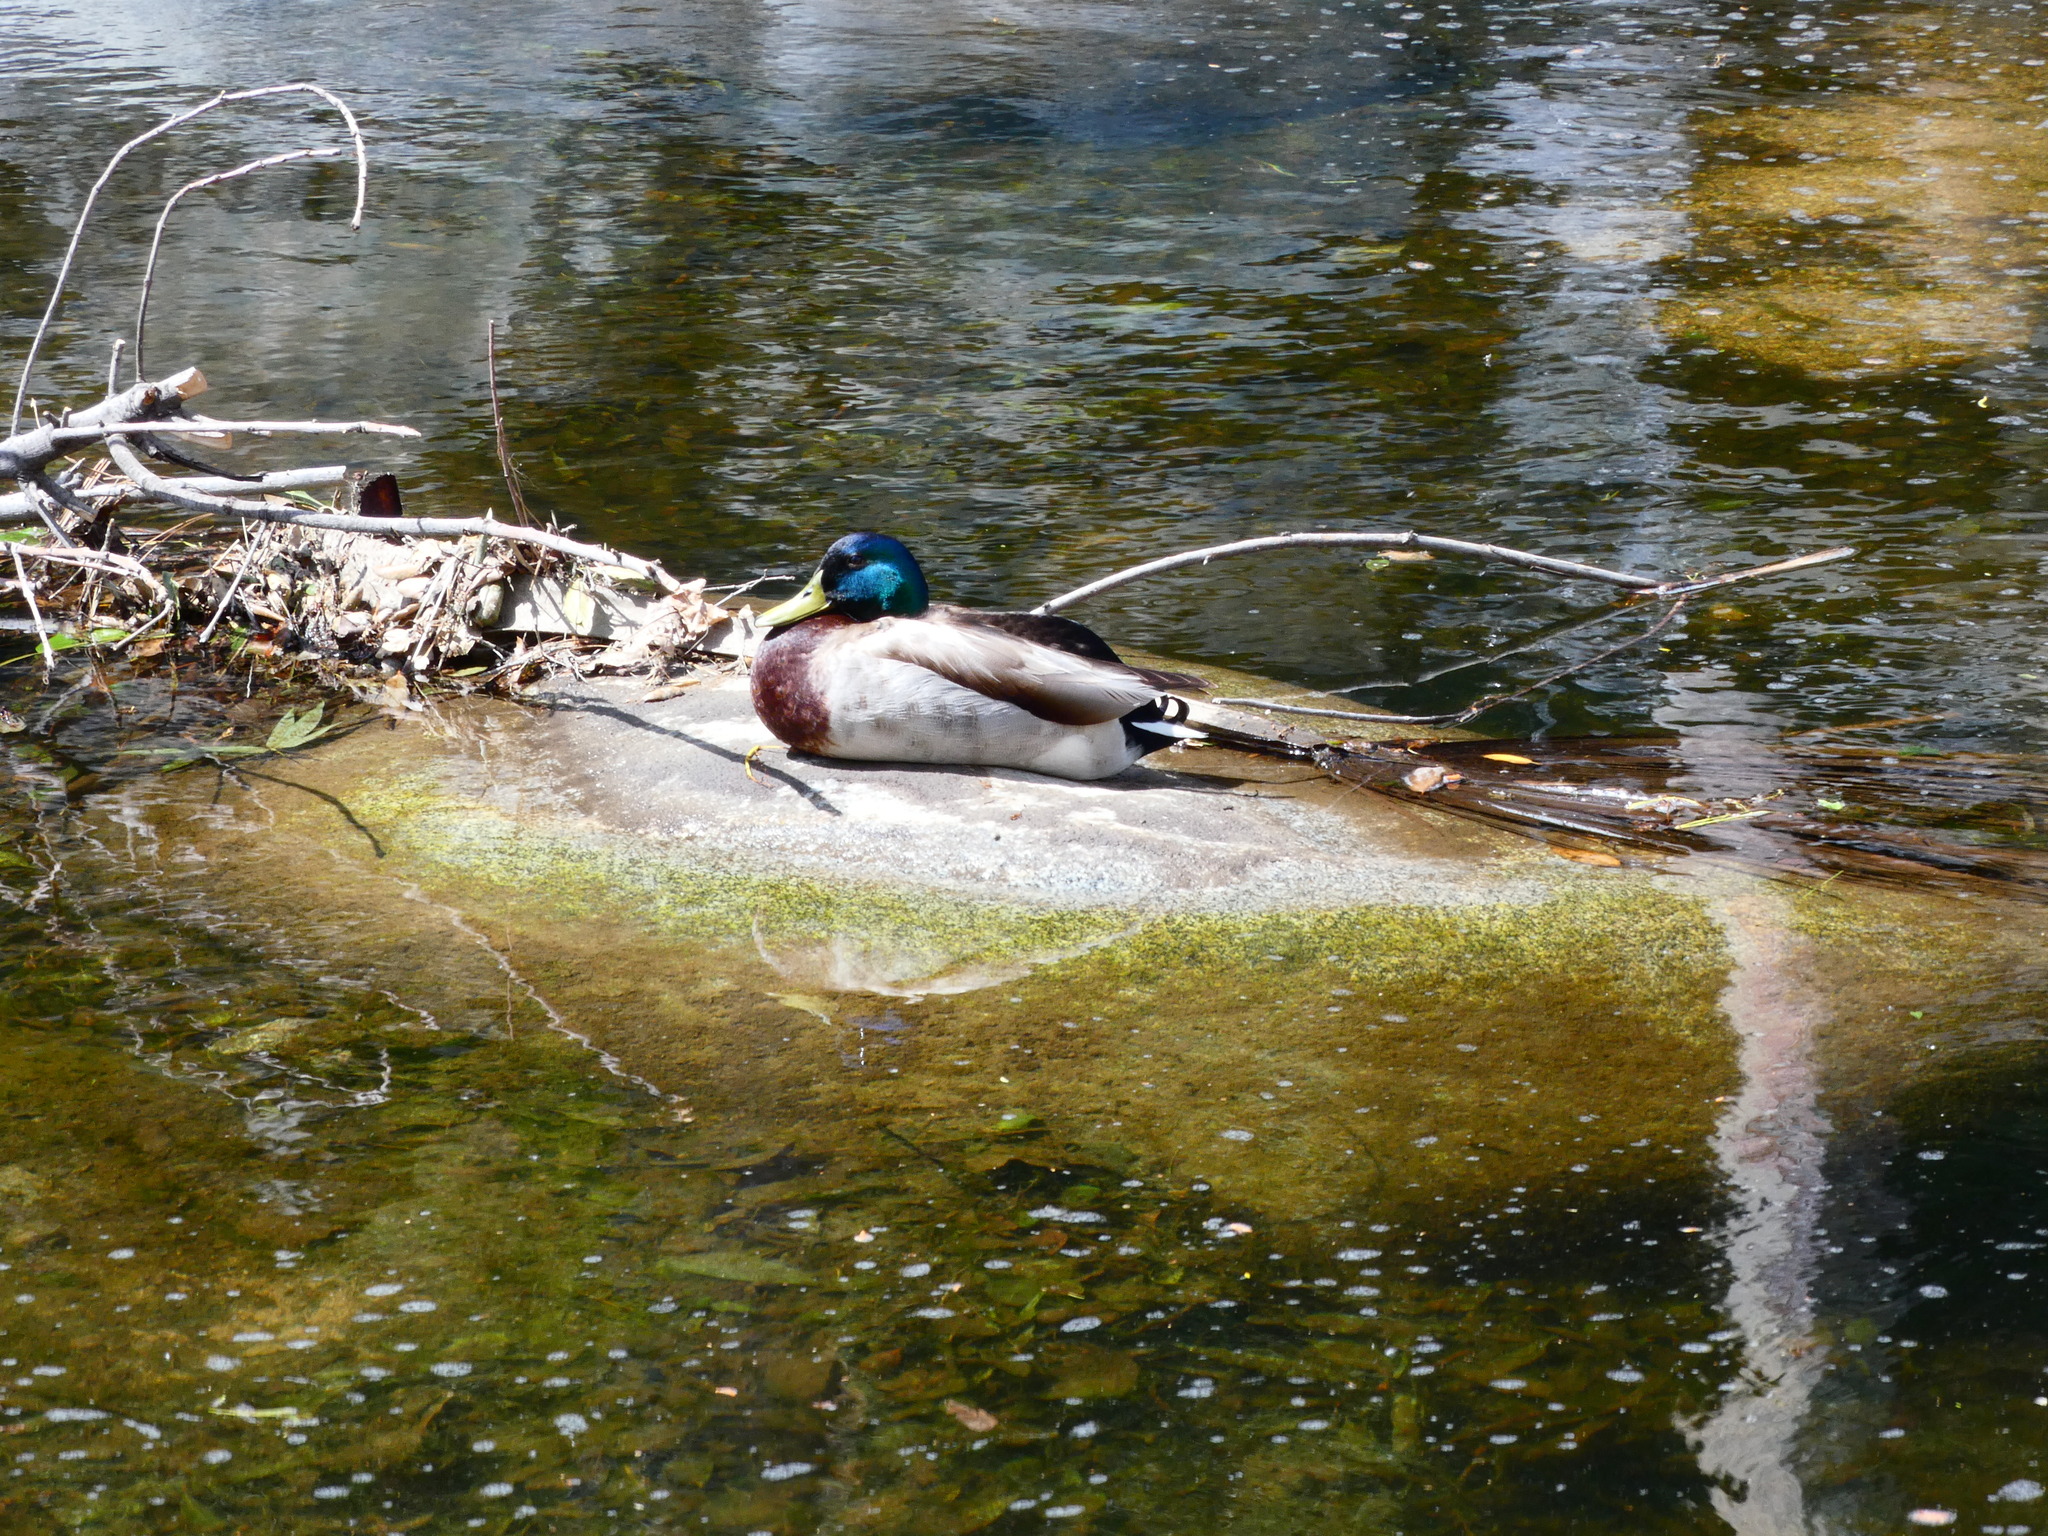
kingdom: Animalia
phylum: Chordata
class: Aves
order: Anseriformes
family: Anatidae
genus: Anas
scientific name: Anas platyrhynchos
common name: Mallard
